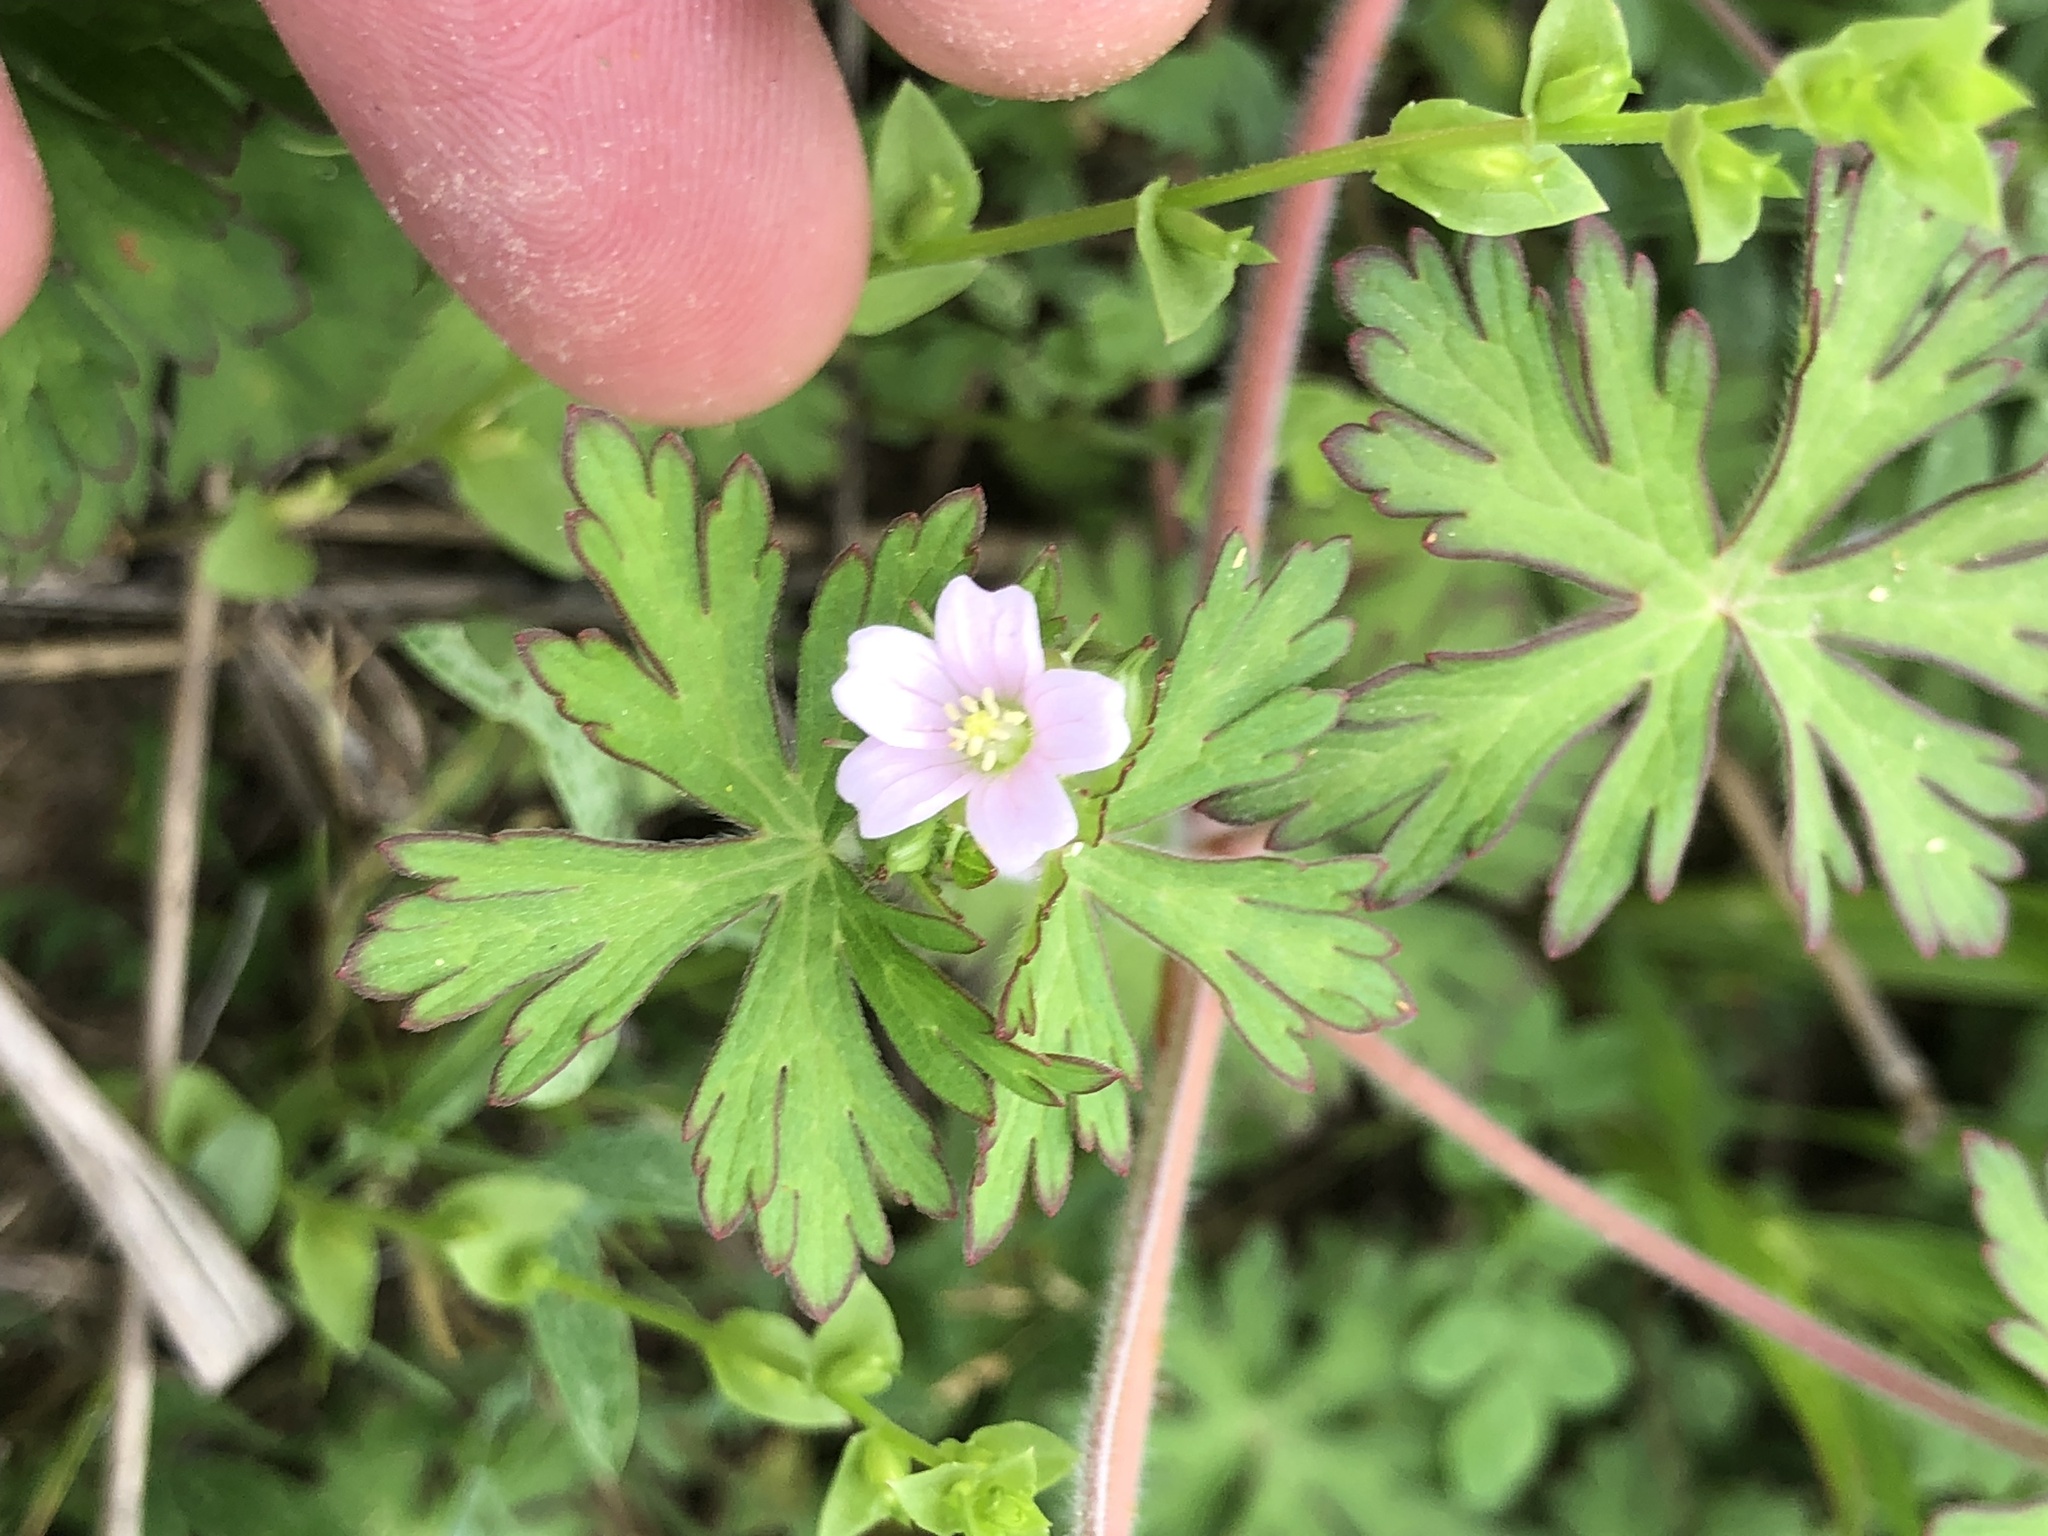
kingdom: Plantae
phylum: Tracheophyta
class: Magnoliopsida
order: Geraniales
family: Geraniaceae
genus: Geranium
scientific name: Geranium carolinianum
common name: Carolina crane's-bill
